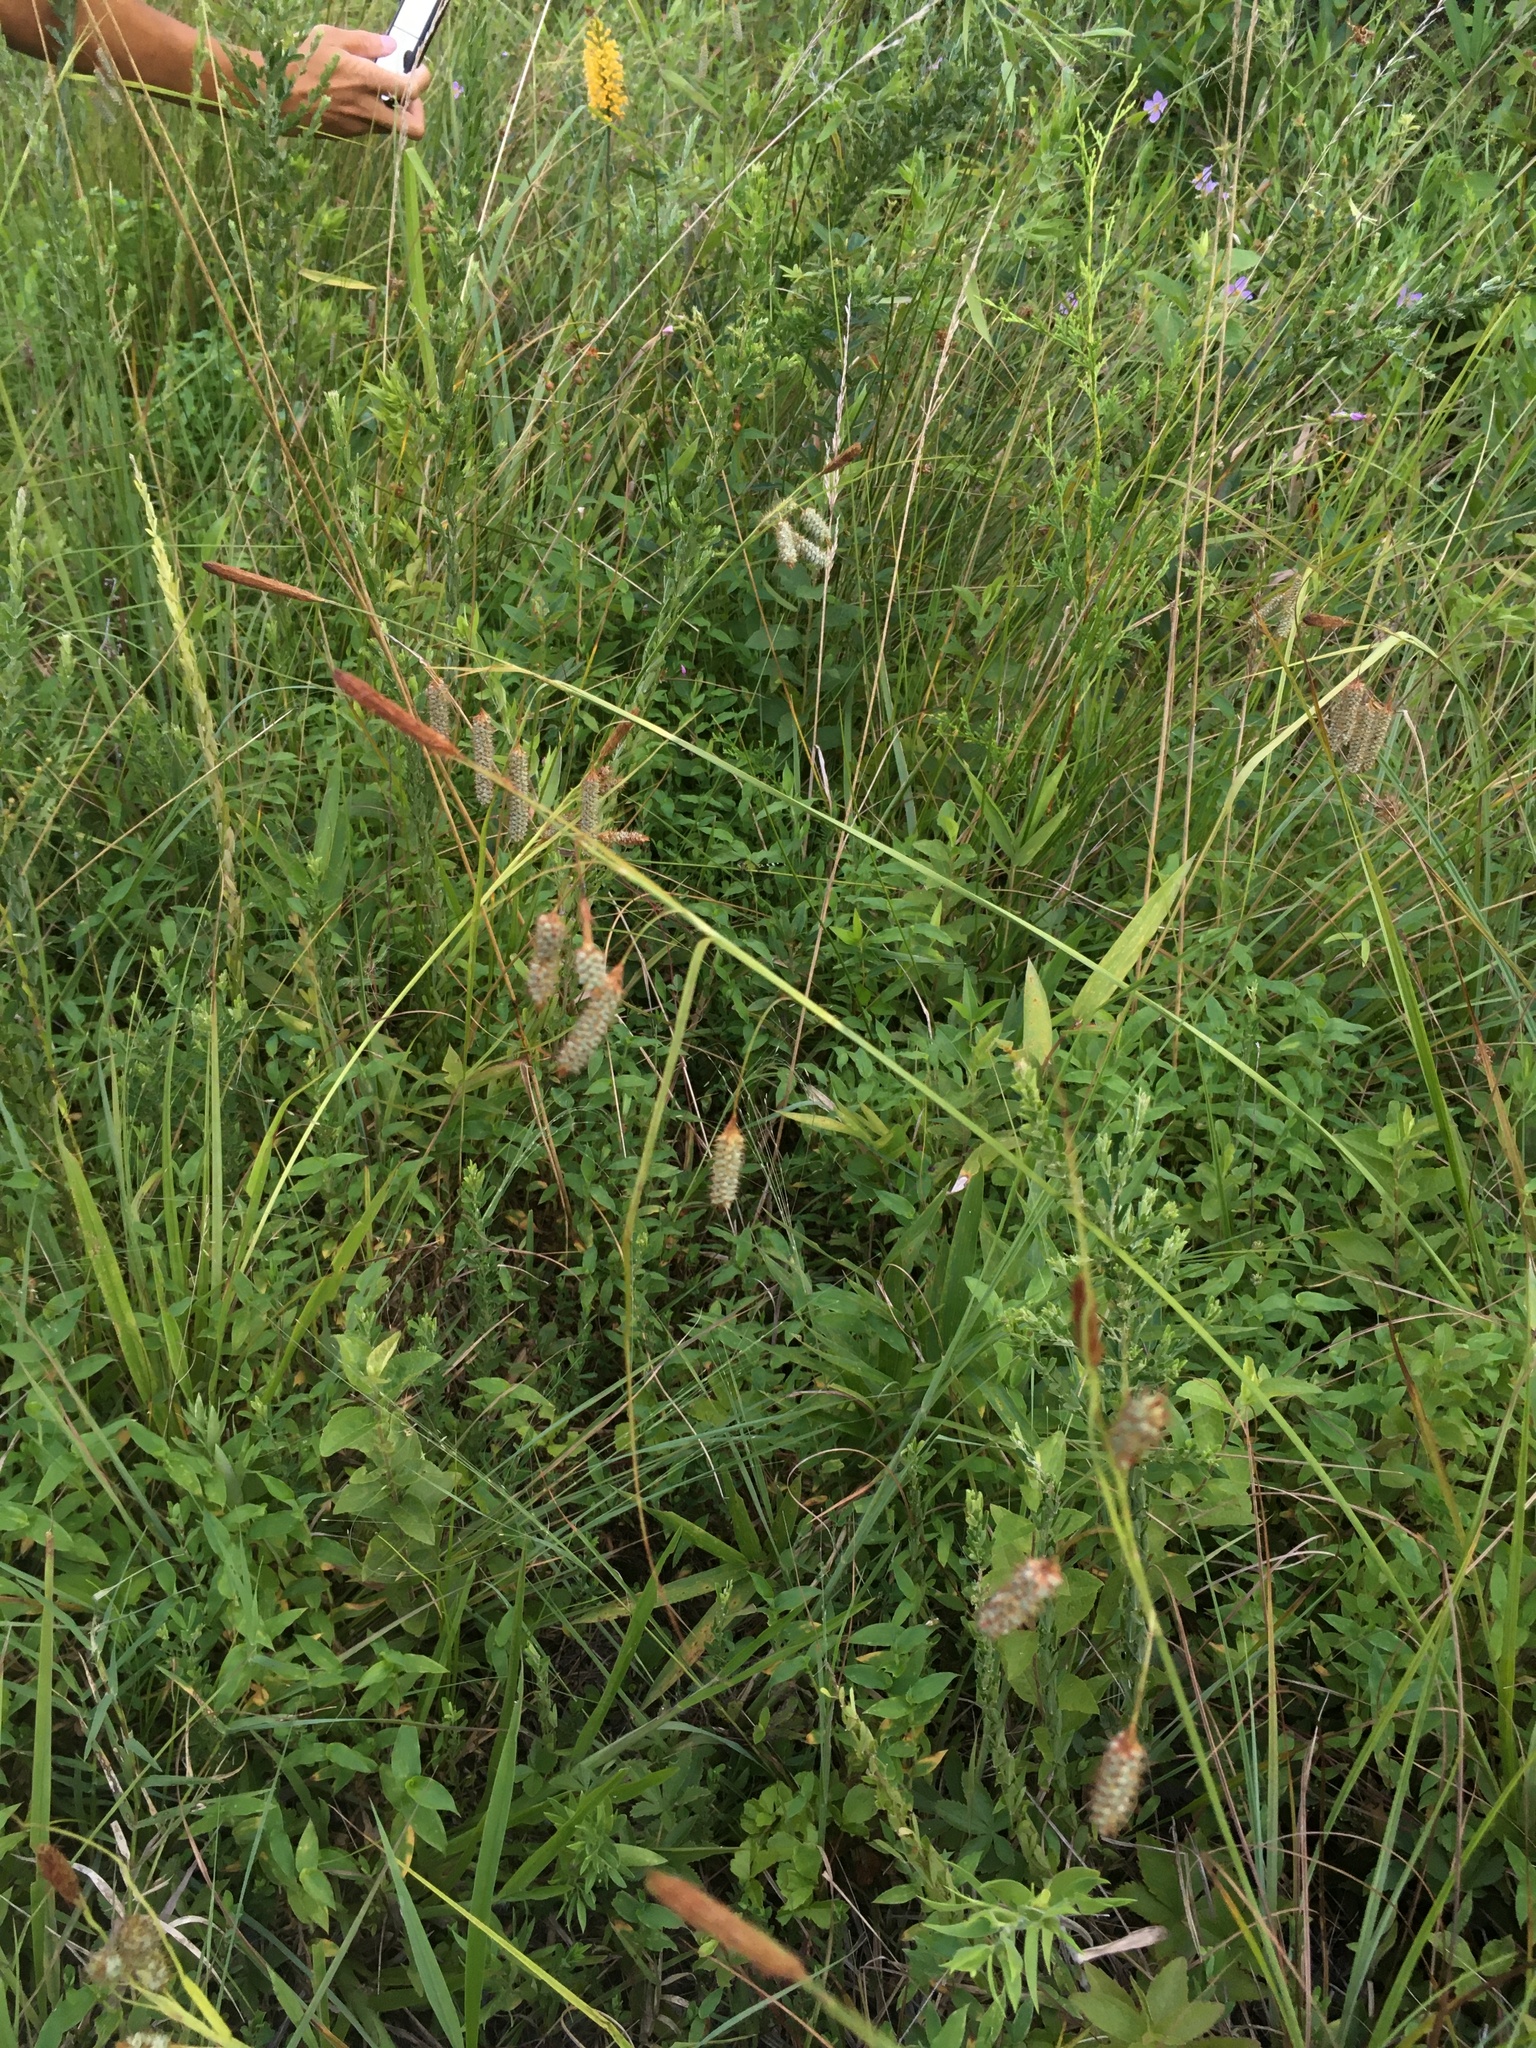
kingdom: Plantae
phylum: Tracheophyta
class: Liliopsida
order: Poales
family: Cyperaceae
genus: Carex
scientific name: Carex glaucescens
